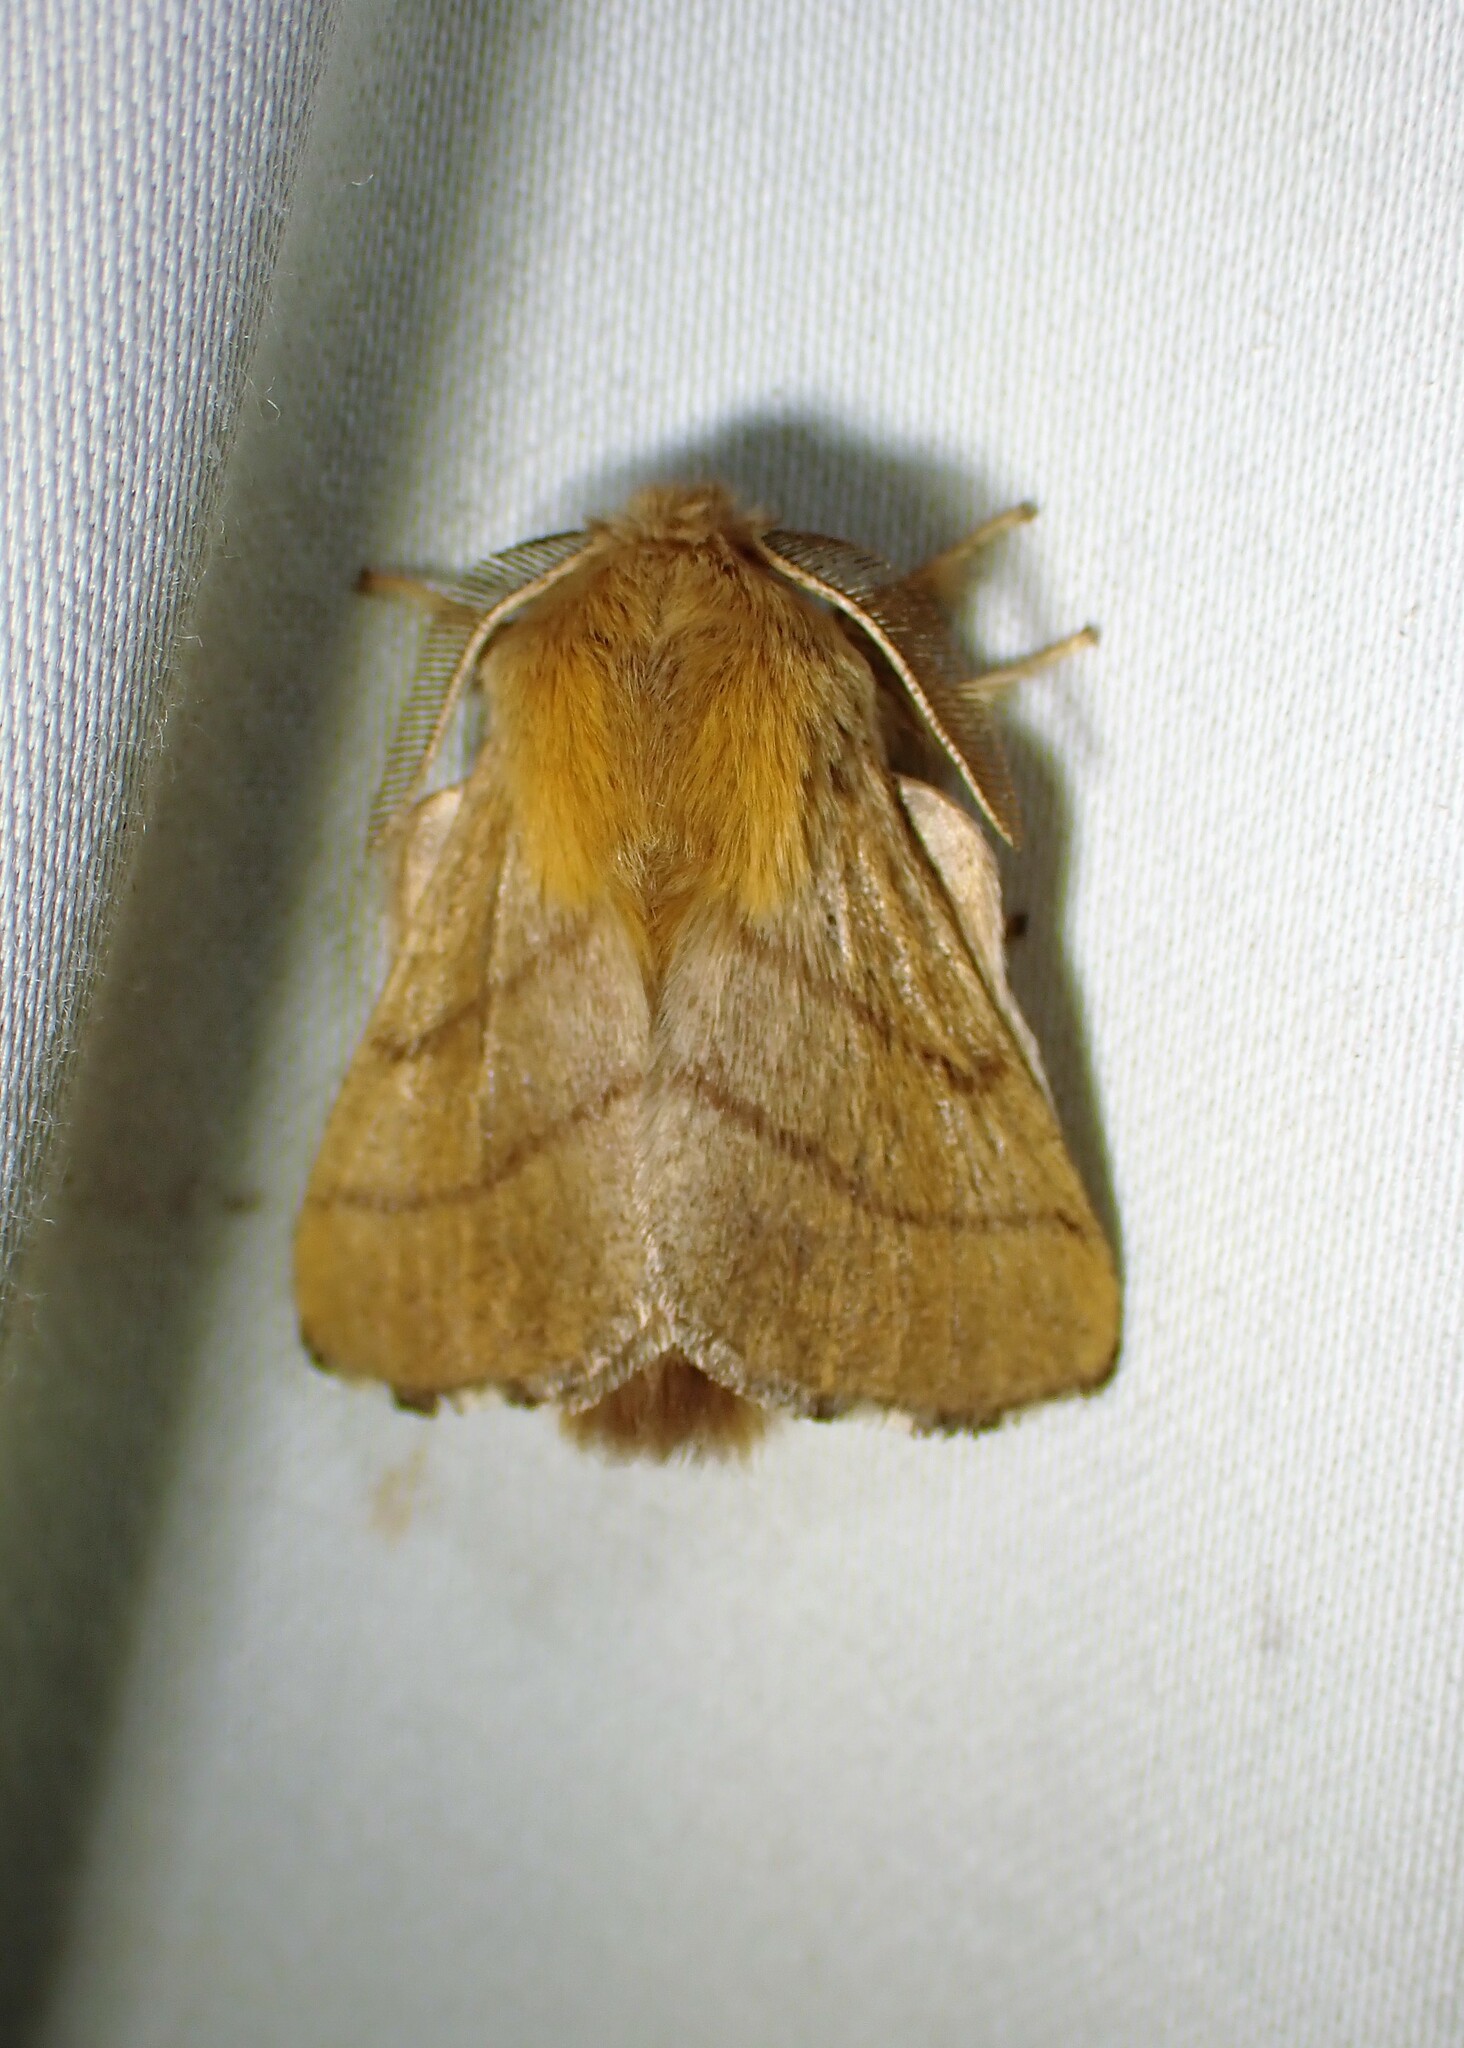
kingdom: Animalia
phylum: Arthropoda
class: Insecta
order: Lepidoptera
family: Lasiocampidae
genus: Malacosoma
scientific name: Malacosoma disstria
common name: Forest tent caterpillar
